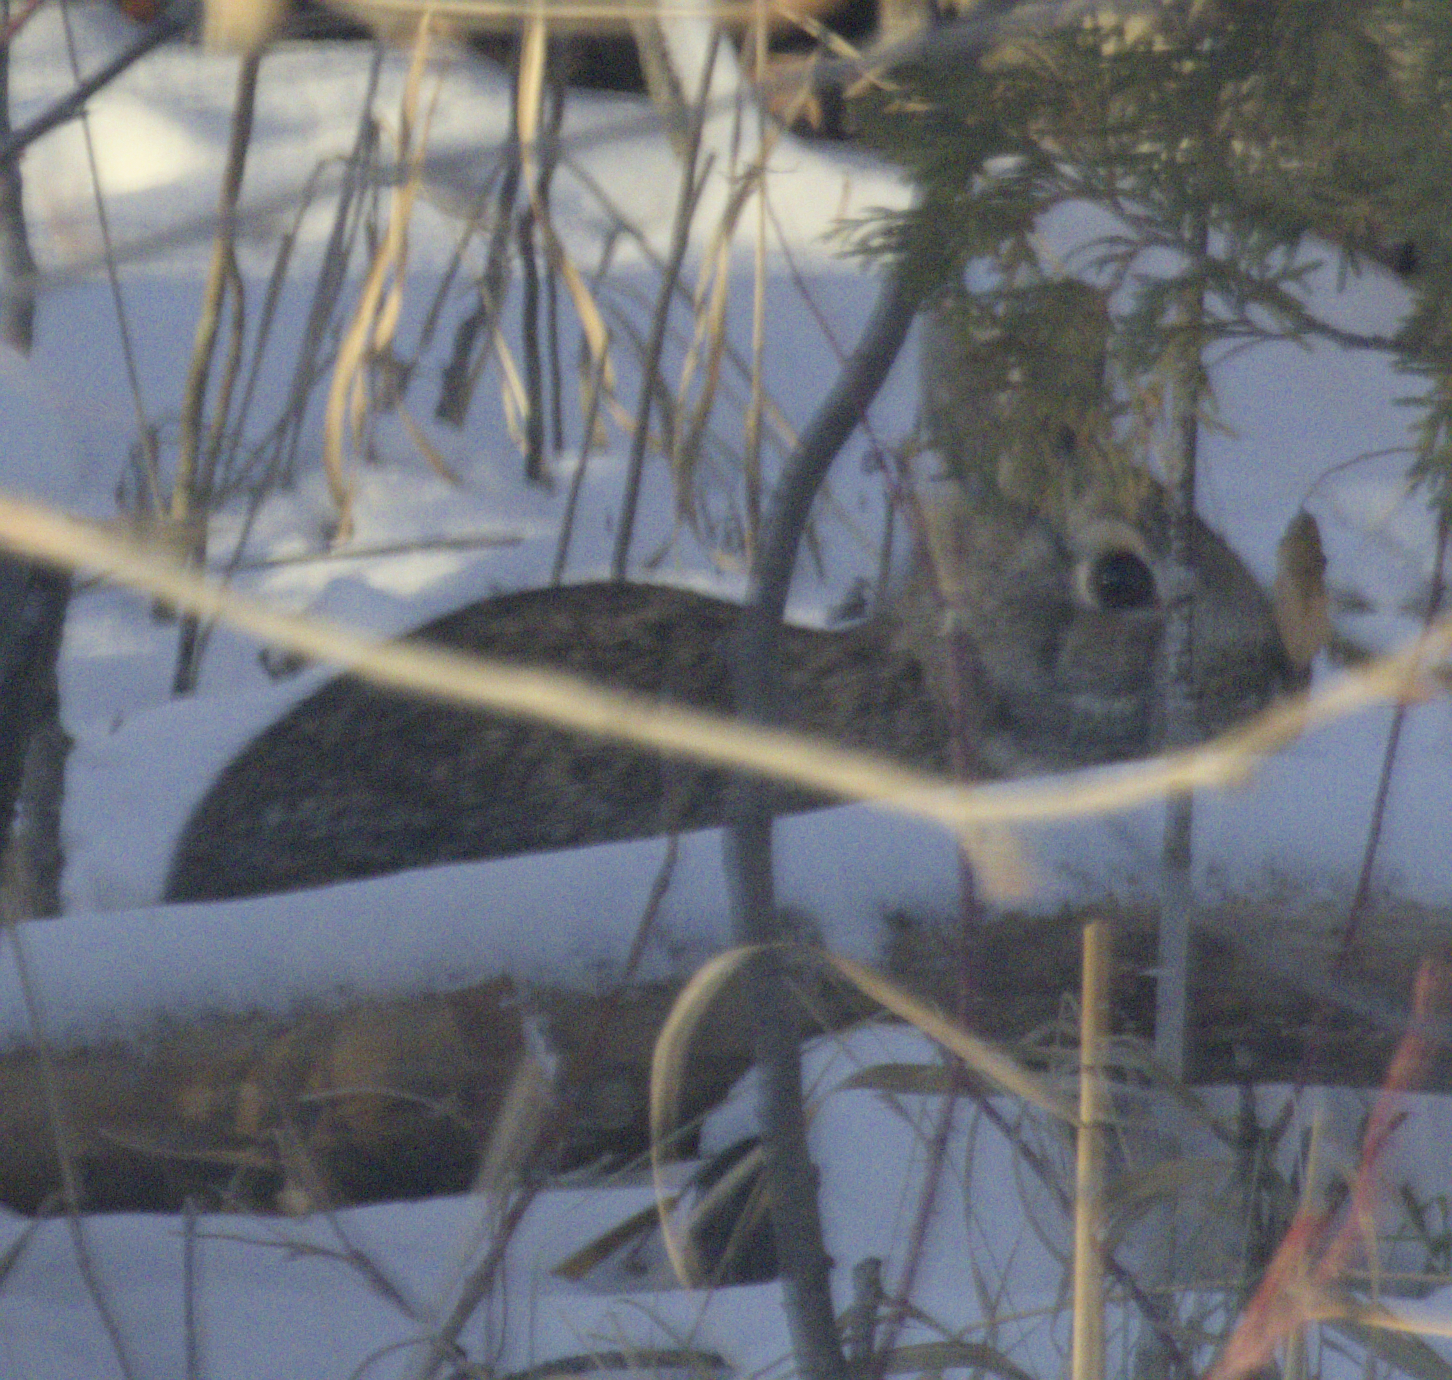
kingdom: Animalia
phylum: Chordata
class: Mammalia
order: Lagomorpha
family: Leporidae
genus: Sylvilagus
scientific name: Sylvilagus floridanus
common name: Eastern cottontail
